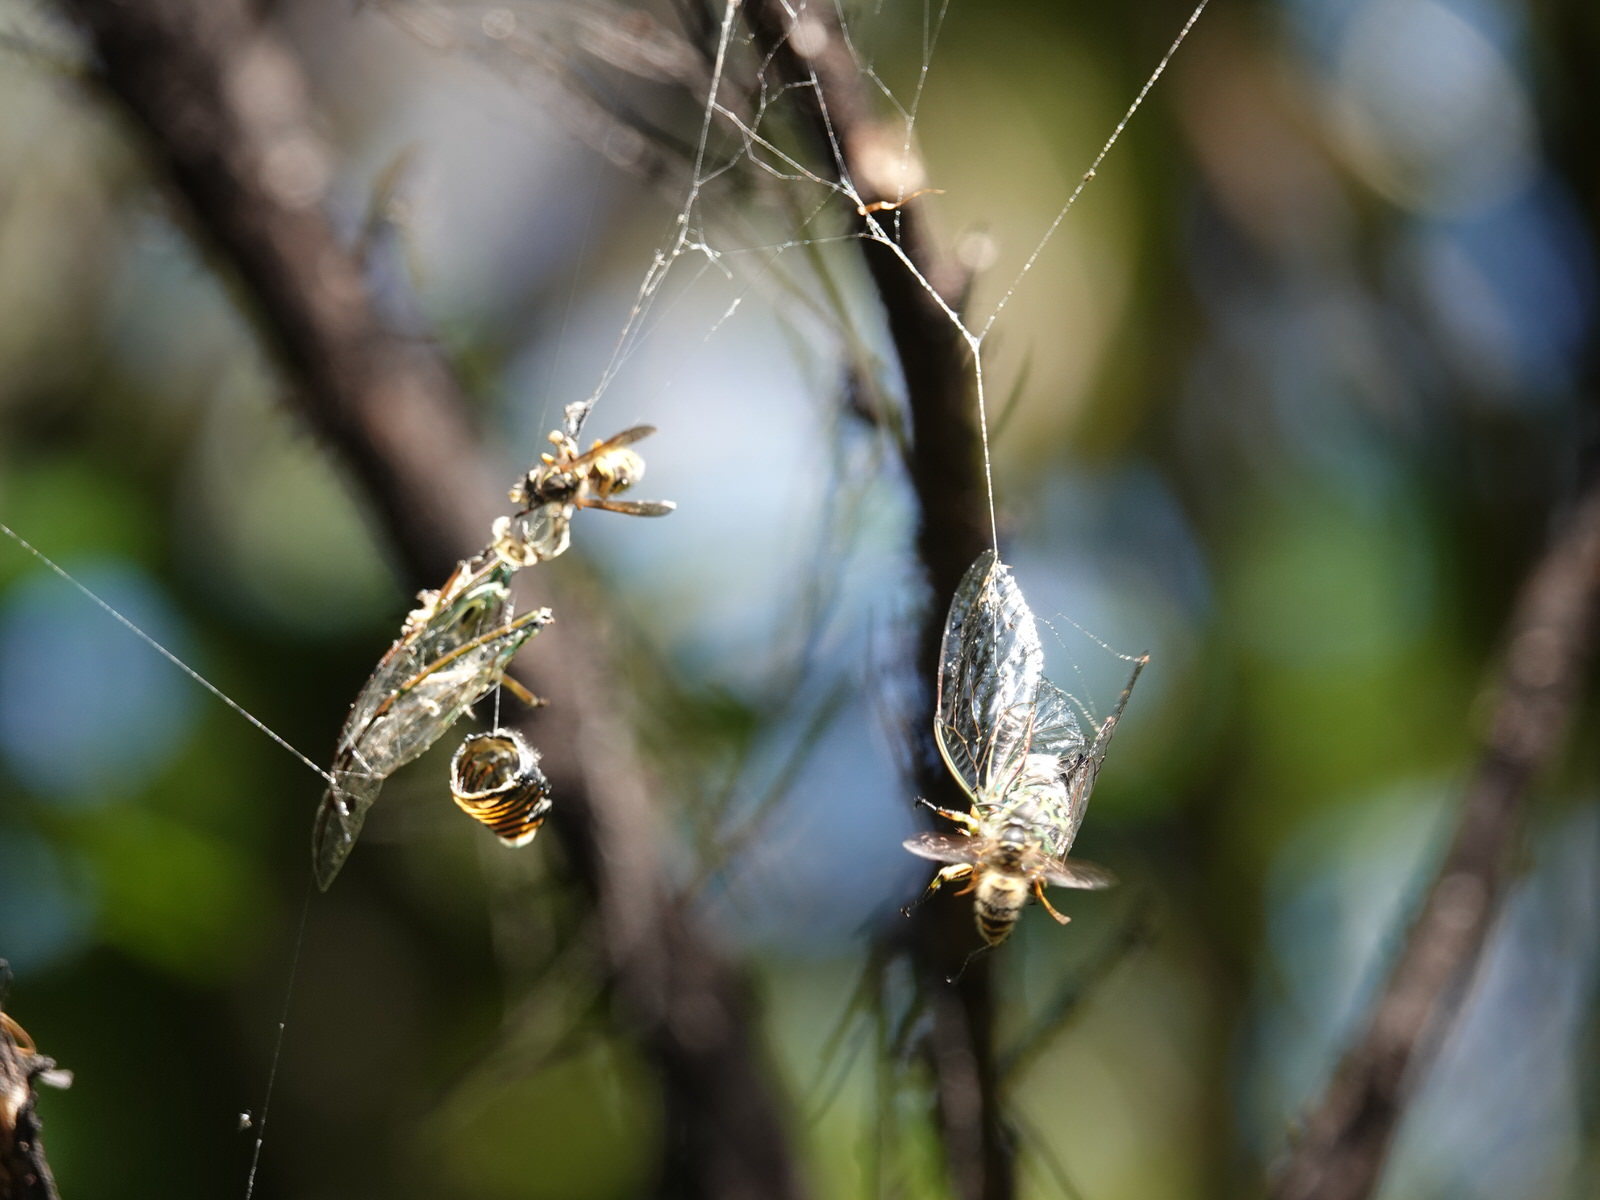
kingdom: Animalia
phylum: Arthropoda
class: Insecta
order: Hymenoptera
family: Vespidae
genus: Vespula
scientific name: Vespula vulgaris
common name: Common wasp
